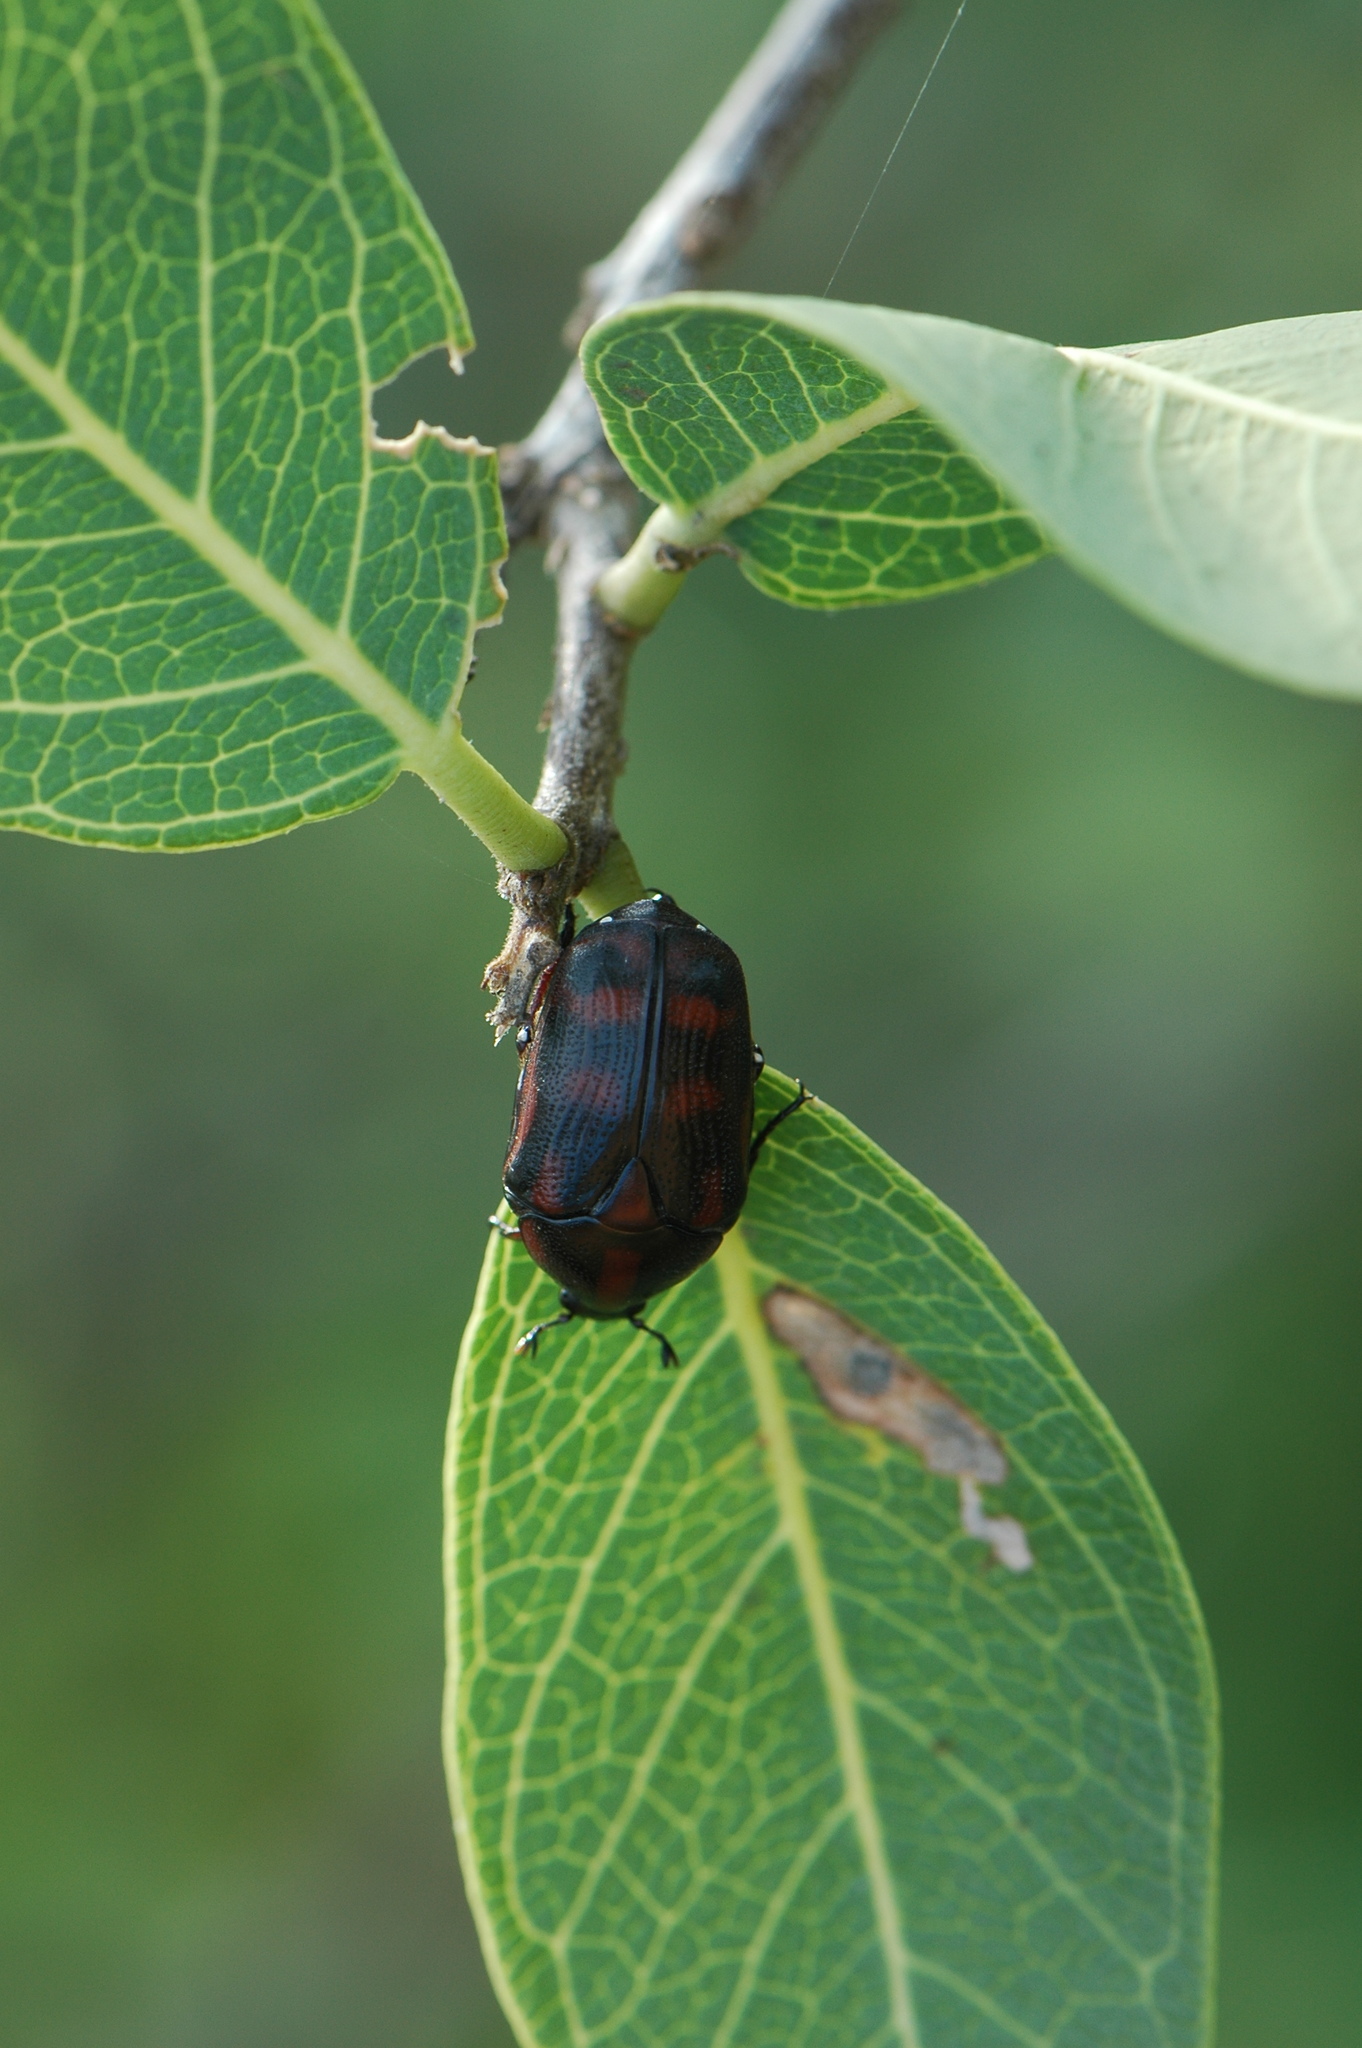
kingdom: Animalia
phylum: Arthropoda
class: Insecta
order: Coleoptera
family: Scarabaeidae
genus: Pachnoda
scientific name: Pachnoda interrupta
